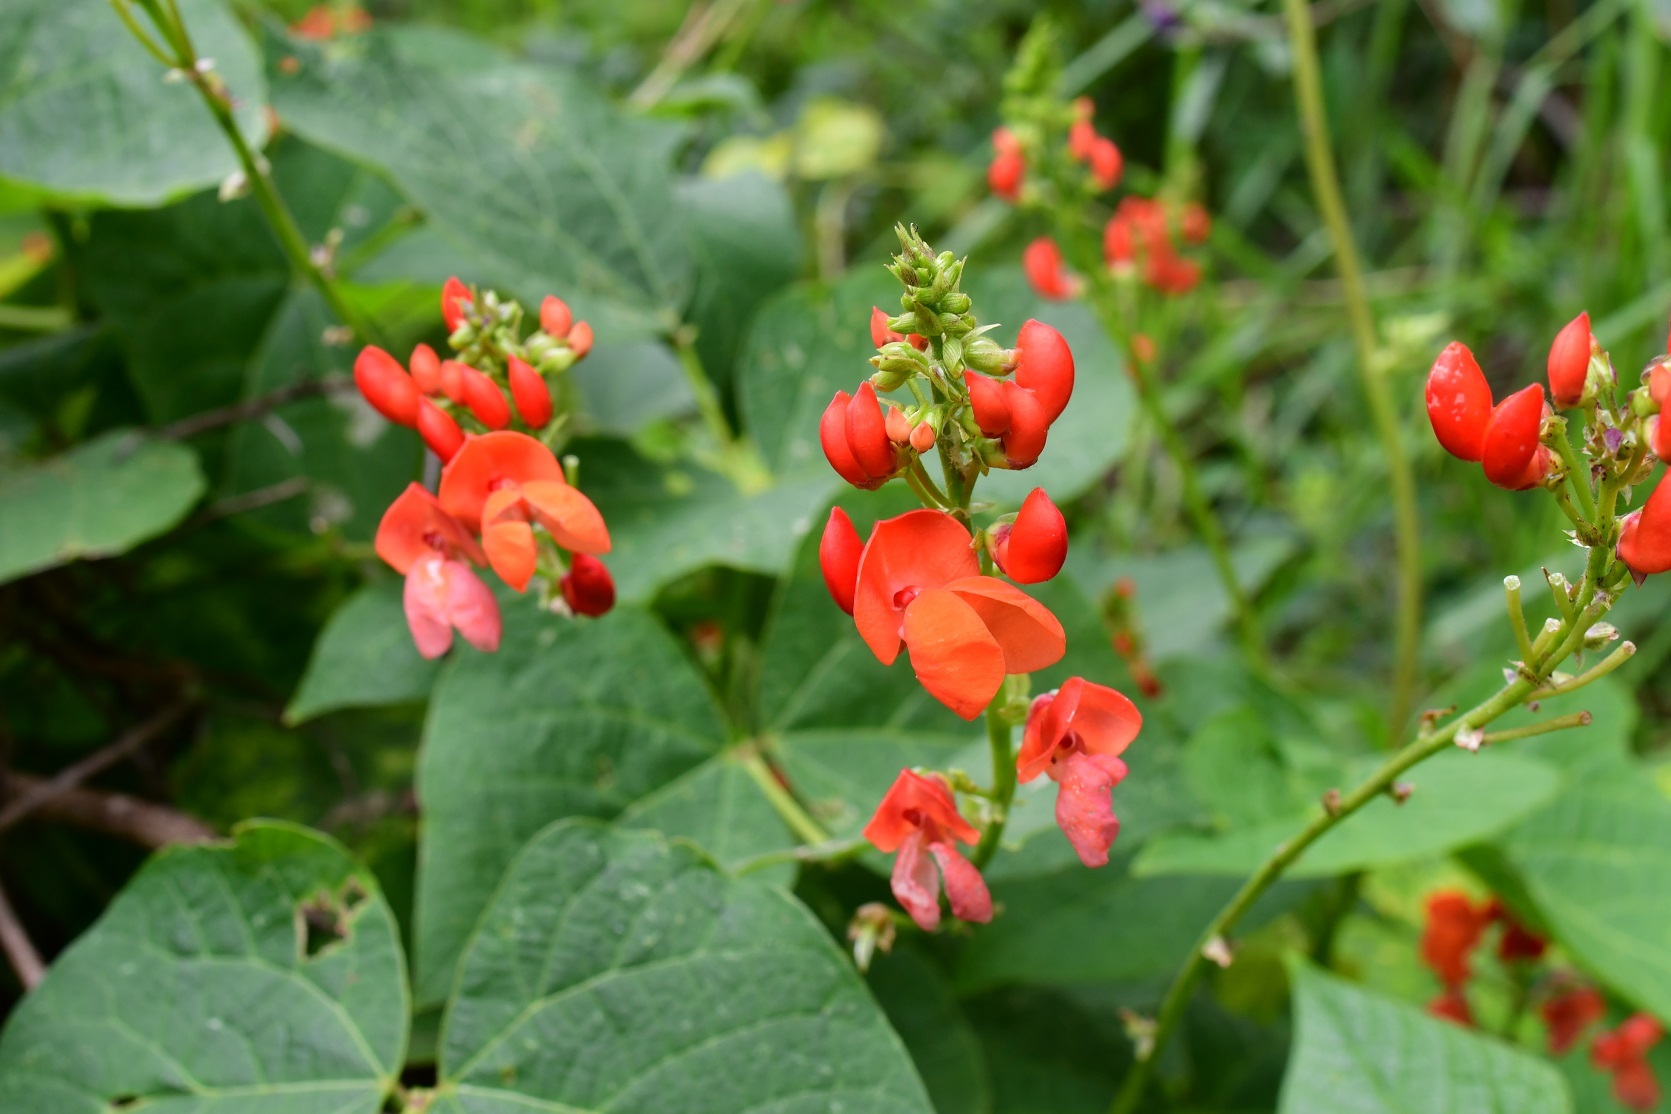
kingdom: Plantae
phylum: Tracheophyta
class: Magnoliopsida
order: Fabales
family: Fabaceae
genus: Phaseolus
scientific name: Phaseolus coccineus
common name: Runner bean
